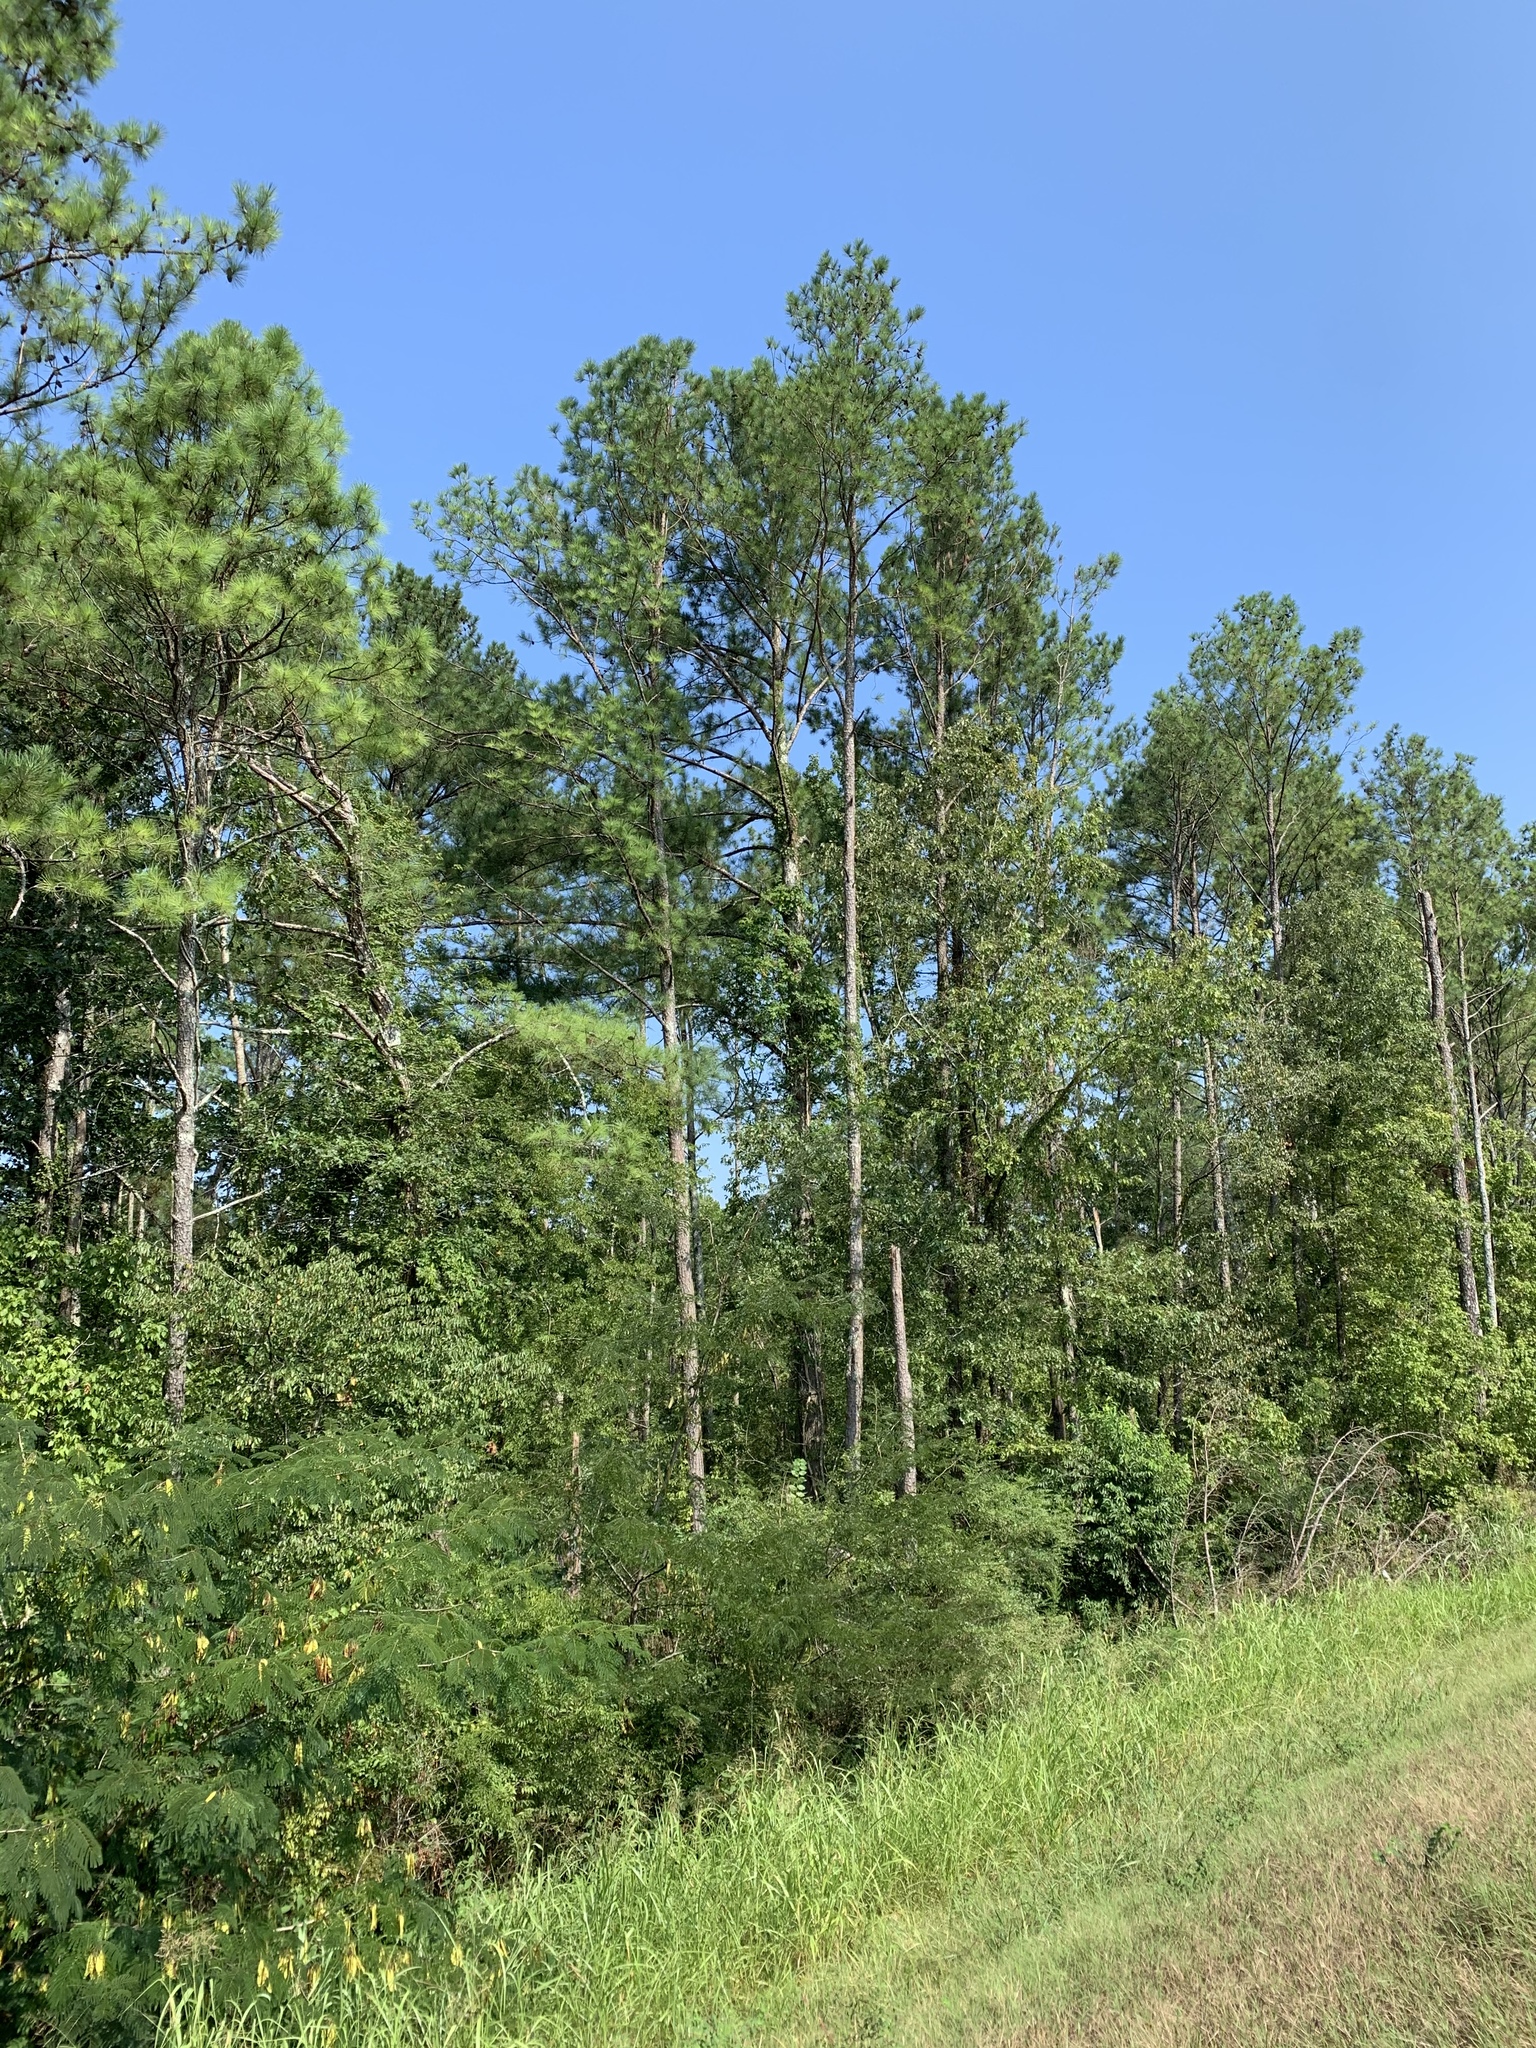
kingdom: Plantae
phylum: Tracheophyta
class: Pinopsida
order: Pinales
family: Pinaceae
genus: Pinus
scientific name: Pinus taeda
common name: Loblolly pine
